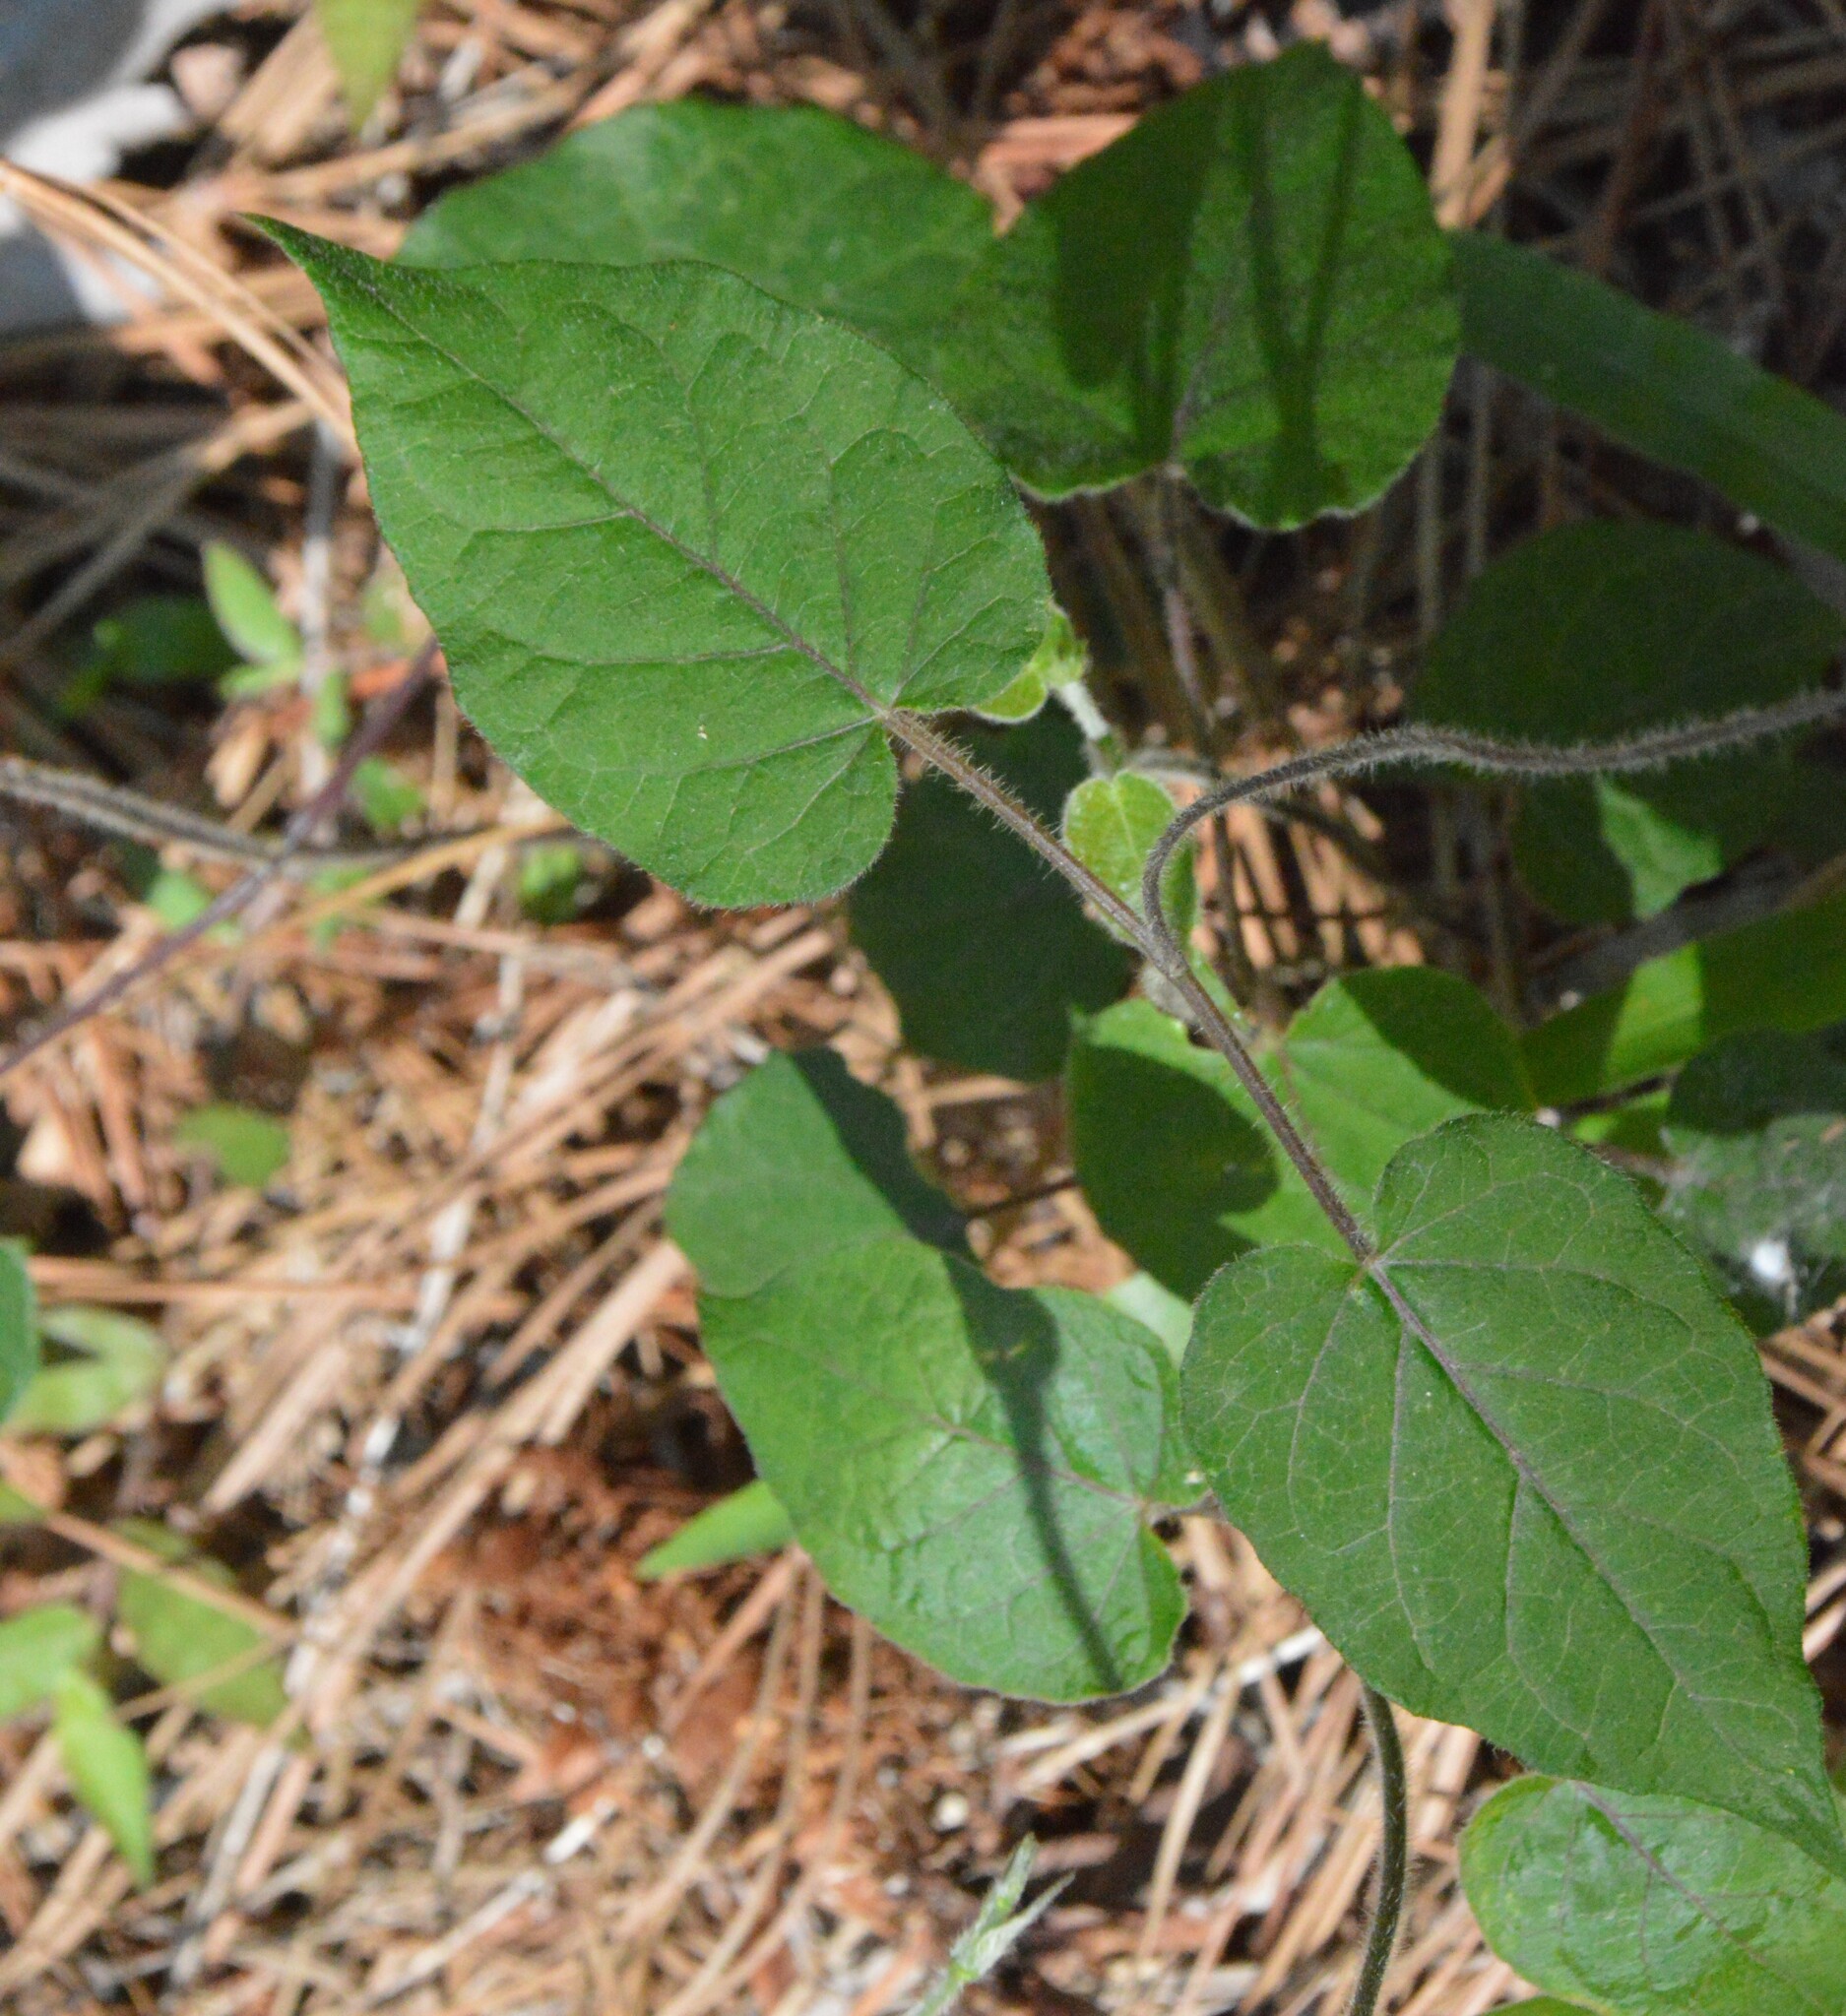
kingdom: Plantae
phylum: Tracheophyta
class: Magnoliopsida
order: Gentianales
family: Apocynaceae
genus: Gonolobus
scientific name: Gonolobus suberosus
